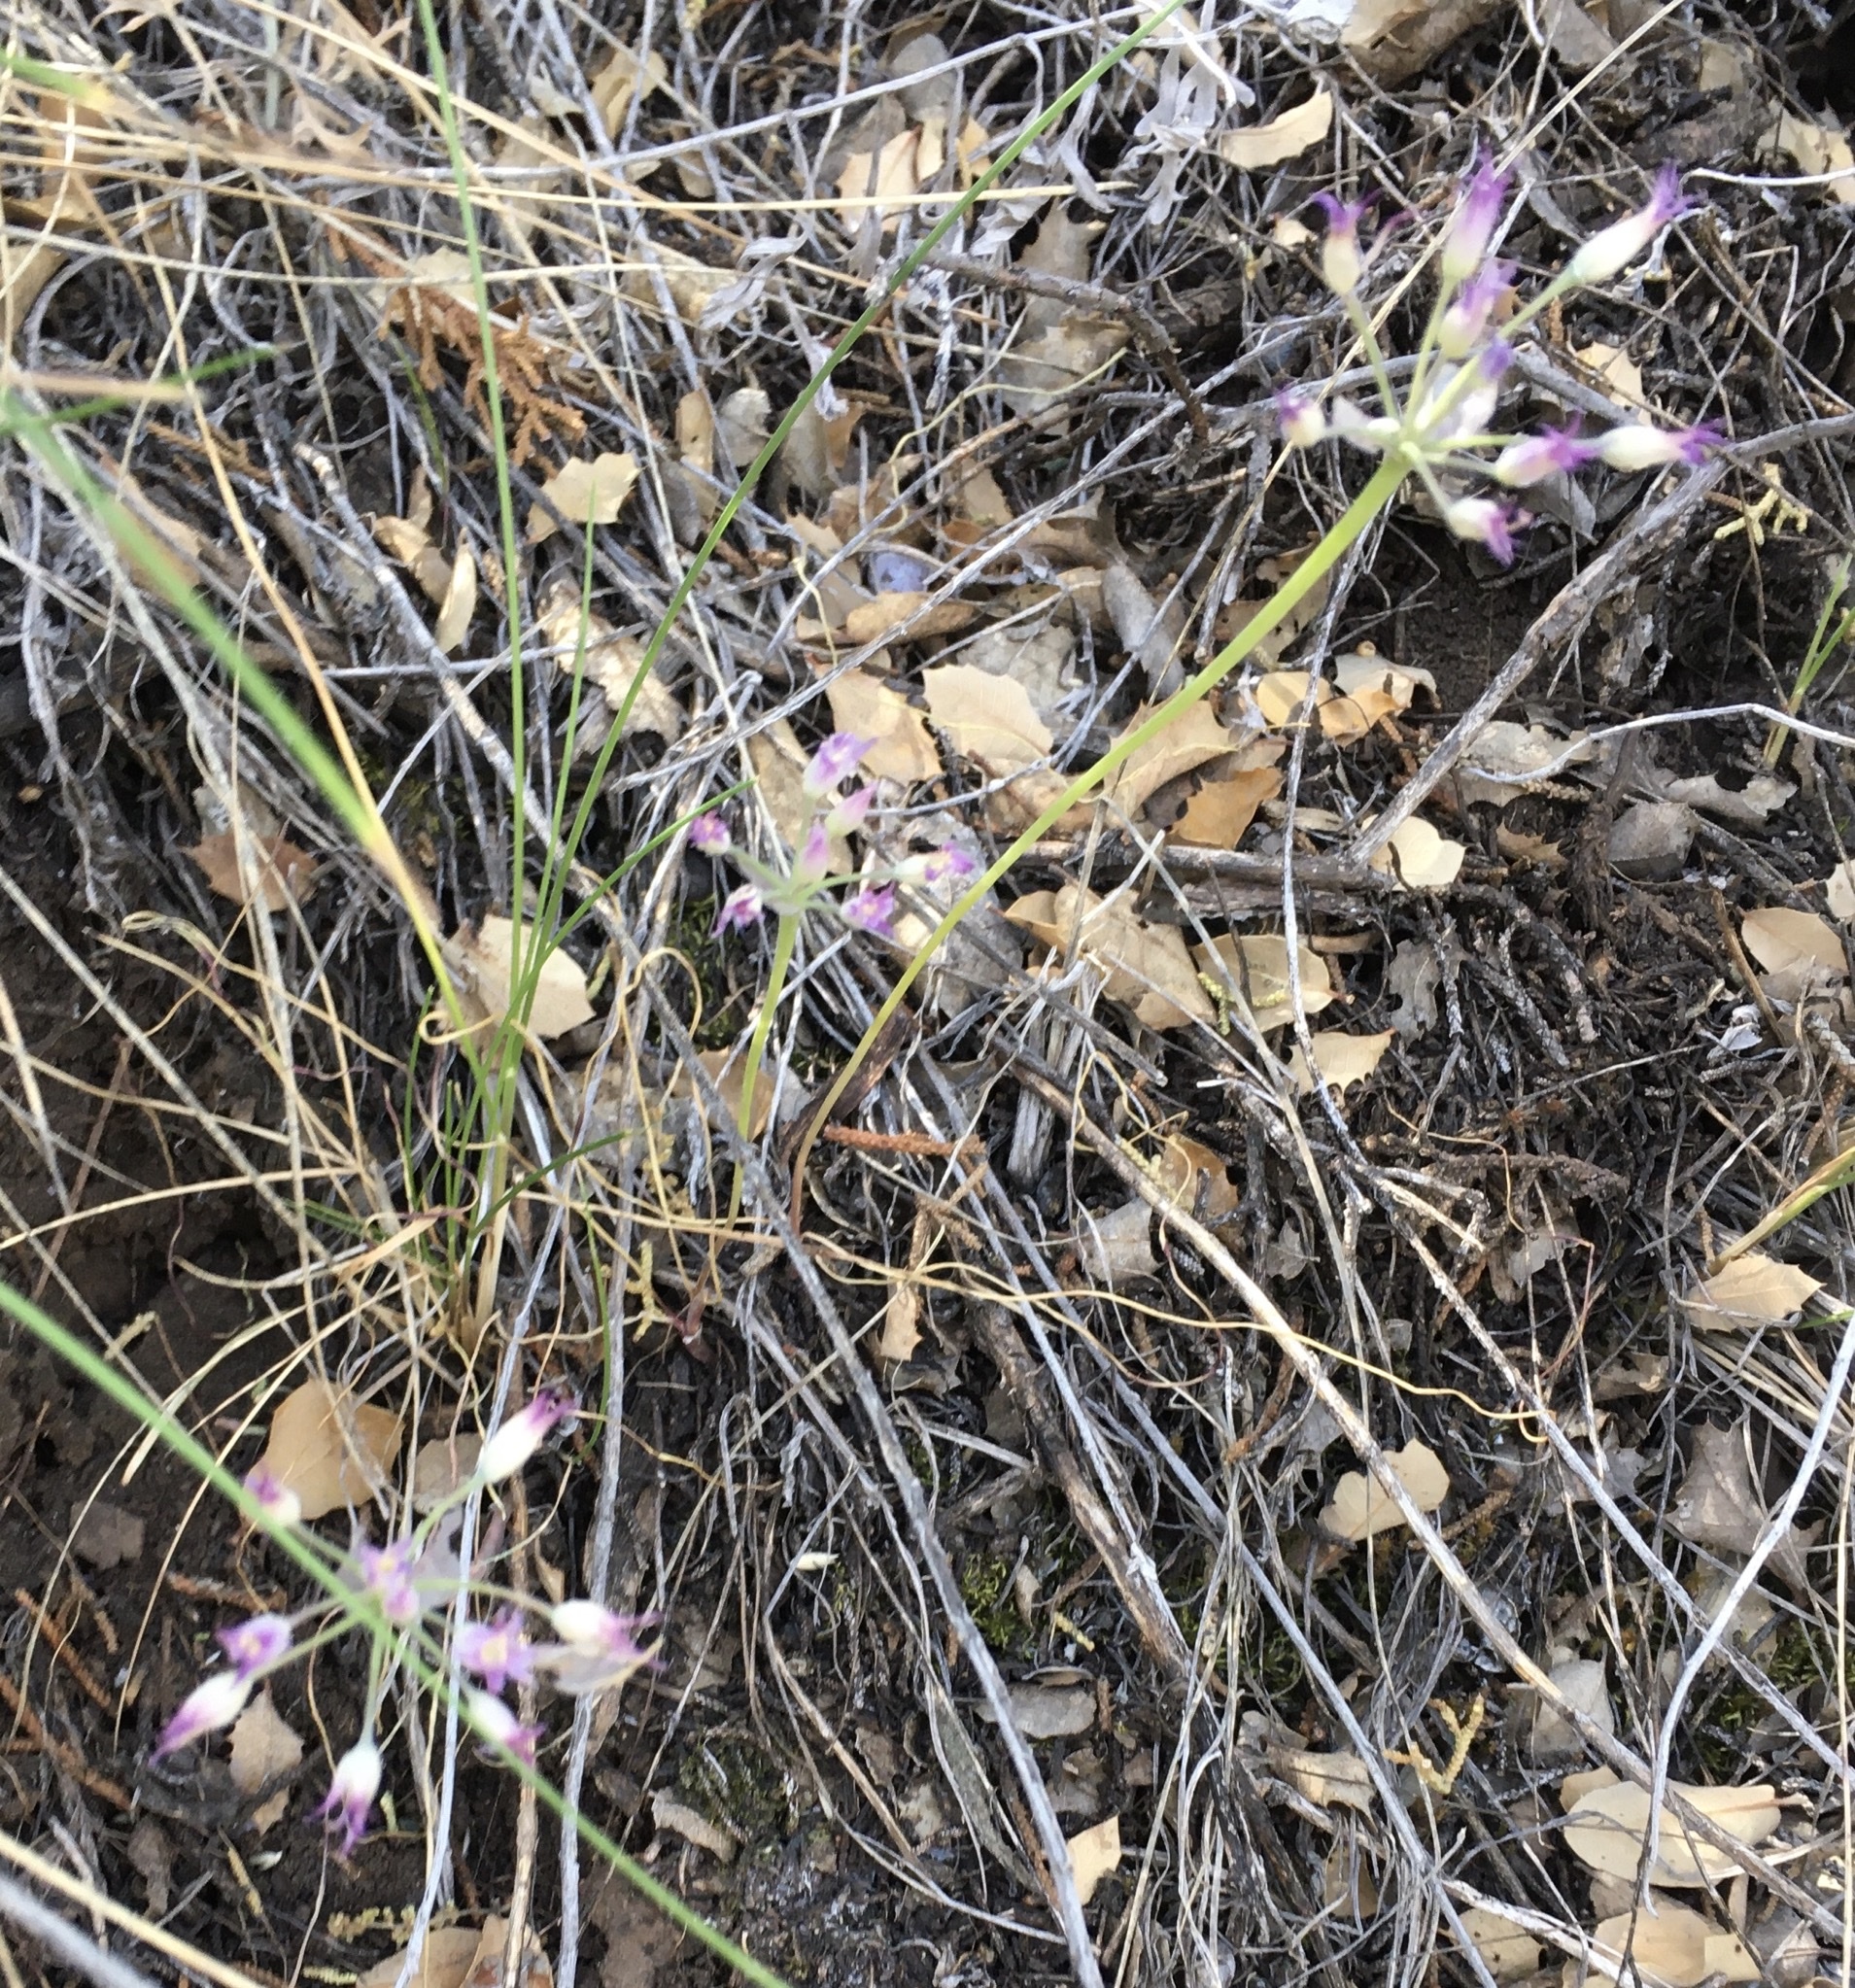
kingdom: Plantae
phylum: Tracheophyta
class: Liliopsida
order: Asparagales
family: Amaryllidaceae
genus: Allium
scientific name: Allium acuminatum
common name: Hooker's onion
